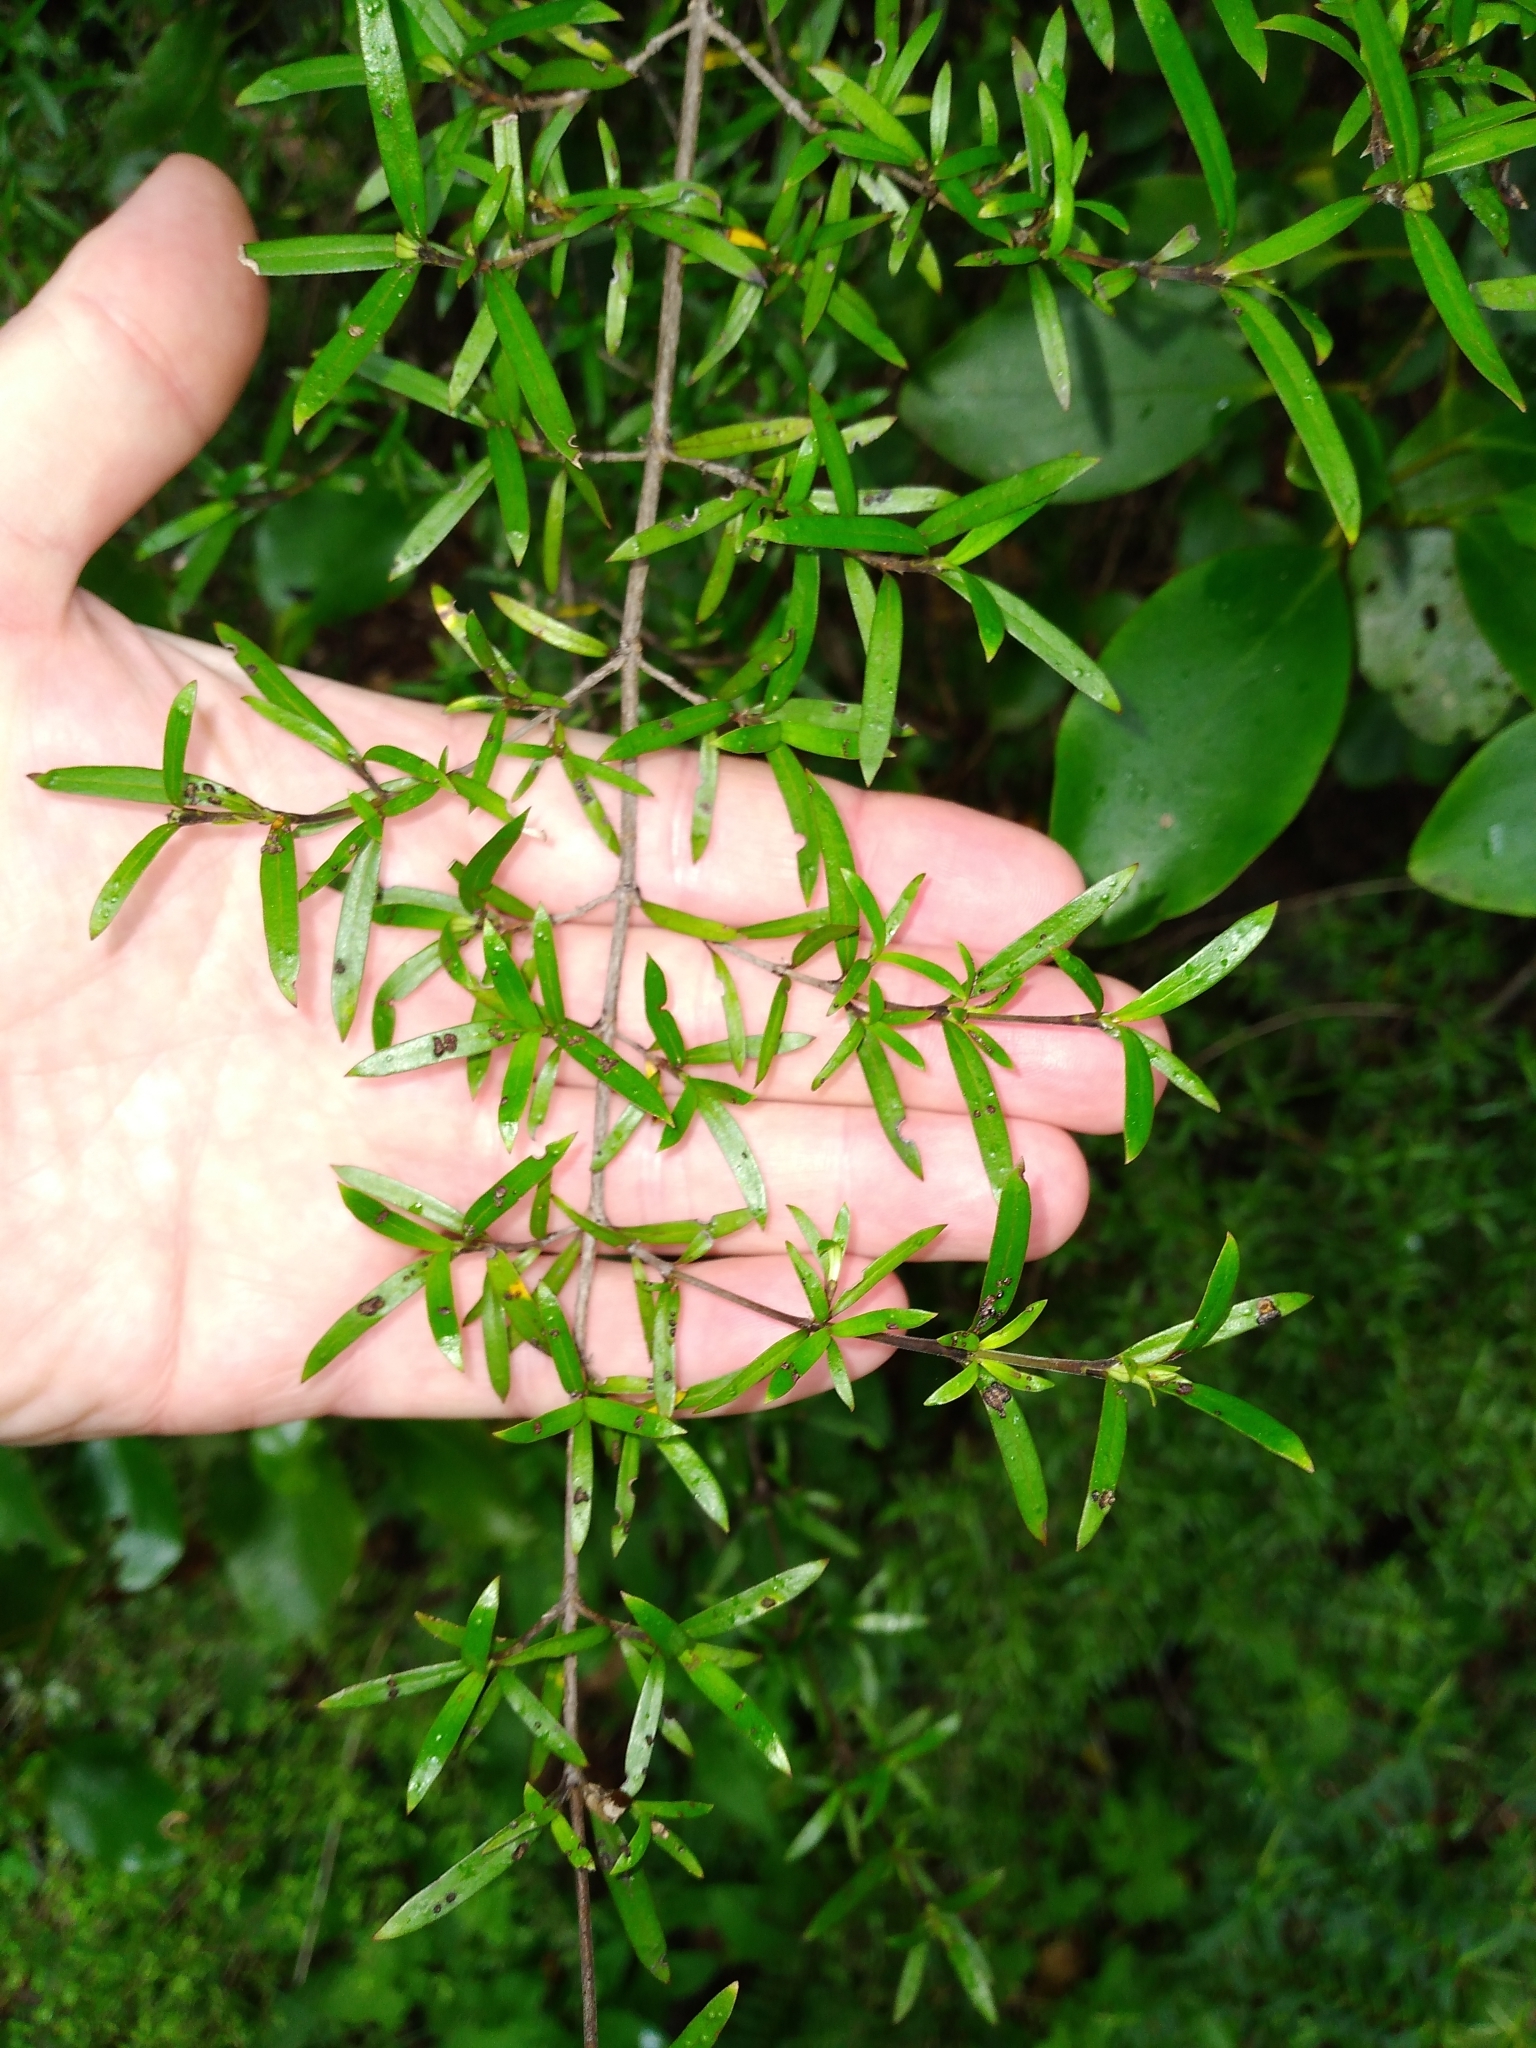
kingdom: Plantae
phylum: Tracheophyta
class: Magnoliopsida
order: Gentianales
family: Rubiaceae
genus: Coprosma
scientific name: Coprosma linariifolia
